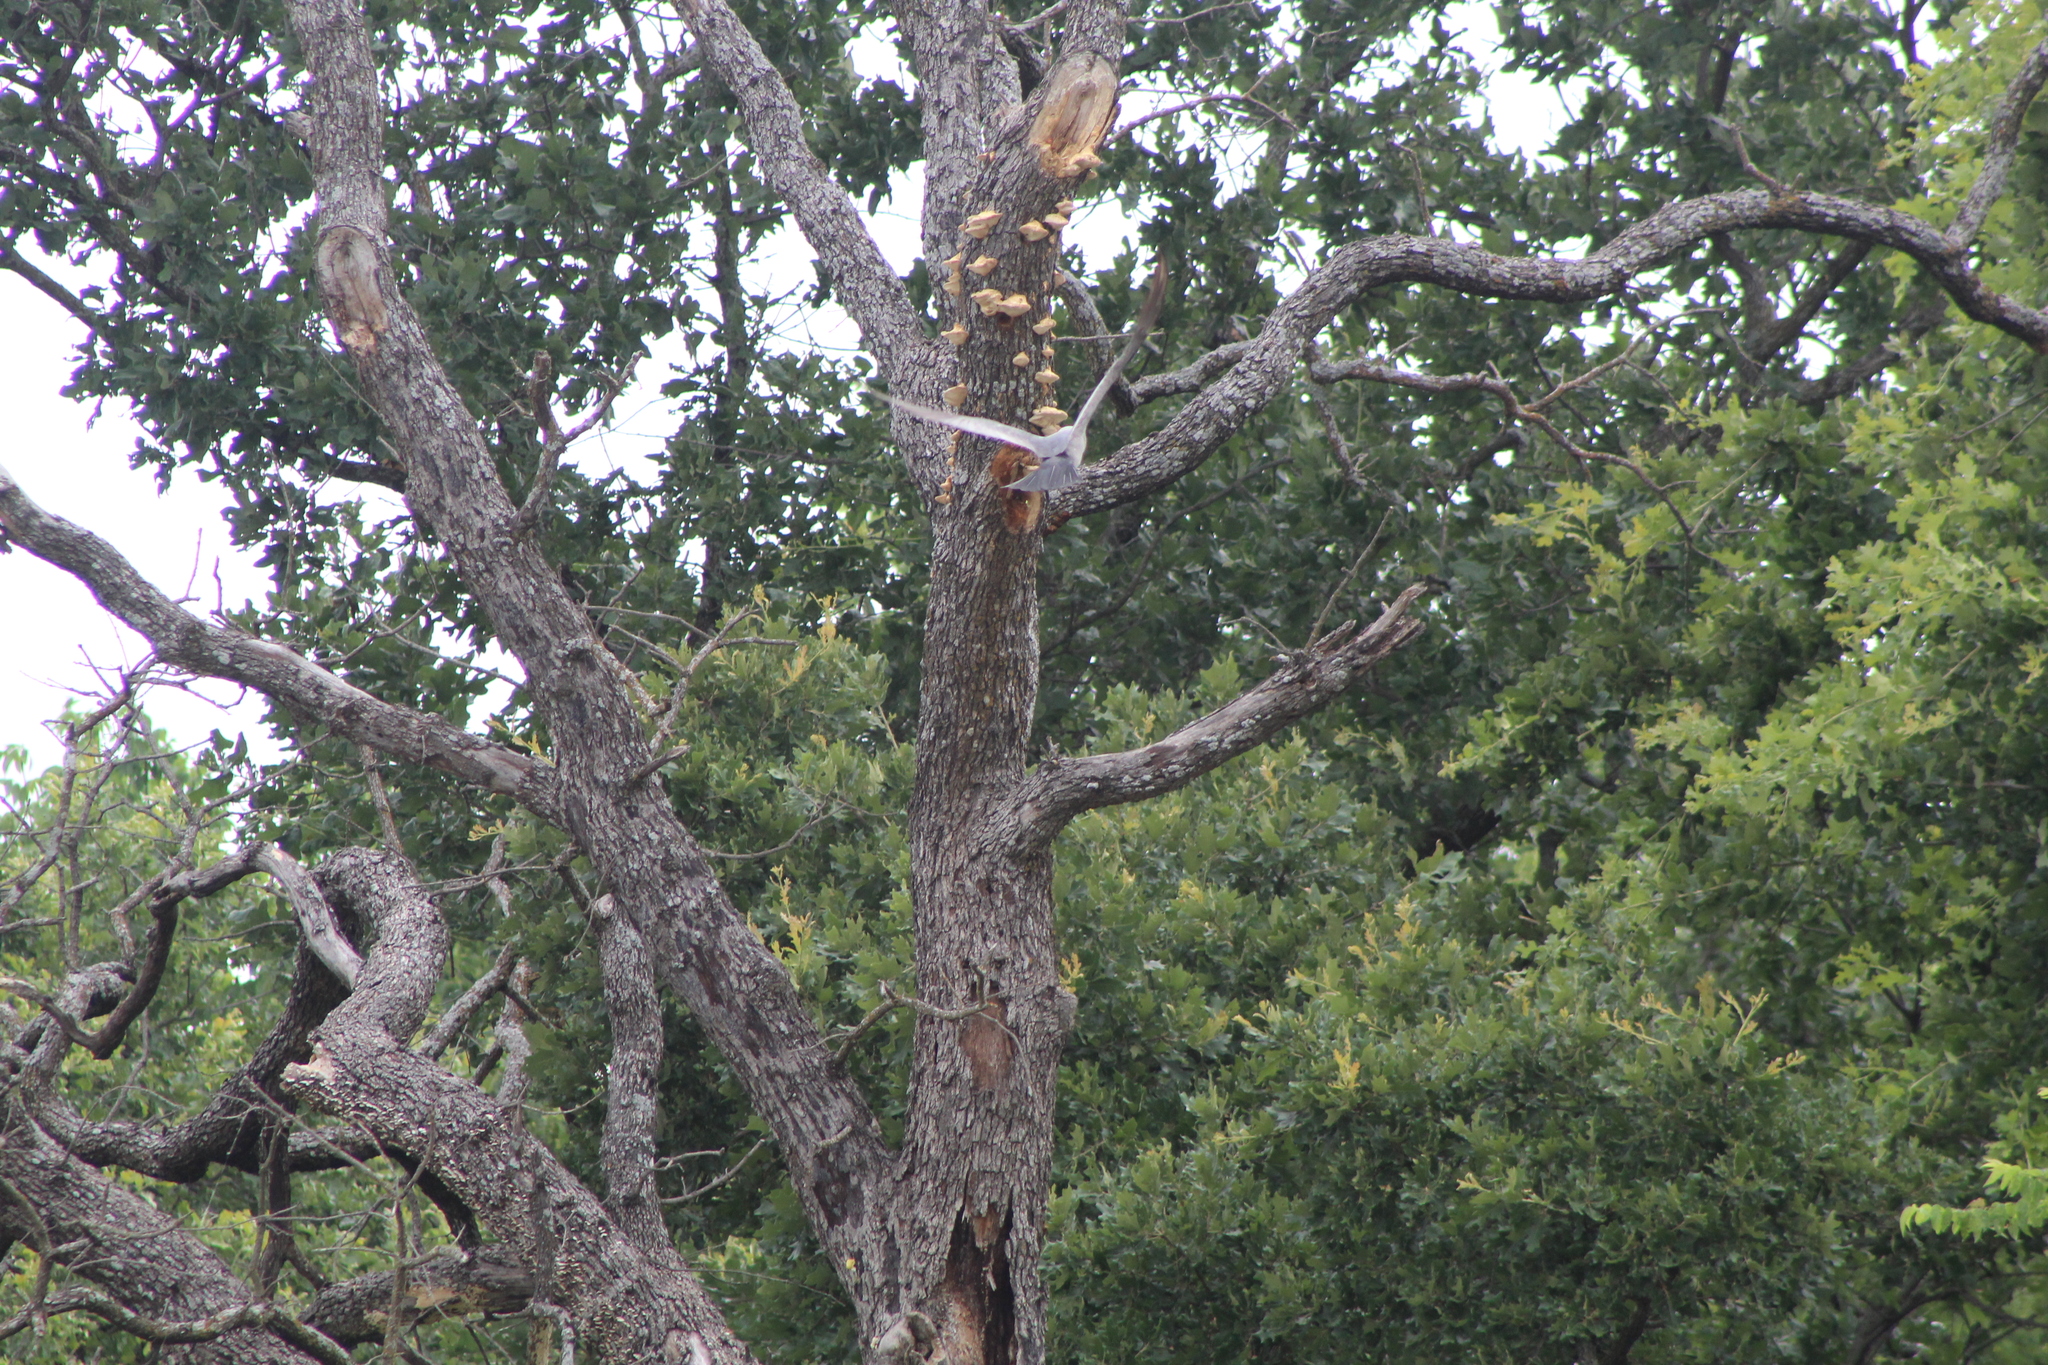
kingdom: Animalia
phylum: Chordata
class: Aves
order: Accipitriformes
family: Accipitridae
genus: Ictinia
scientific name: Ictinia mississippiensis
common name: Mississippi kite
